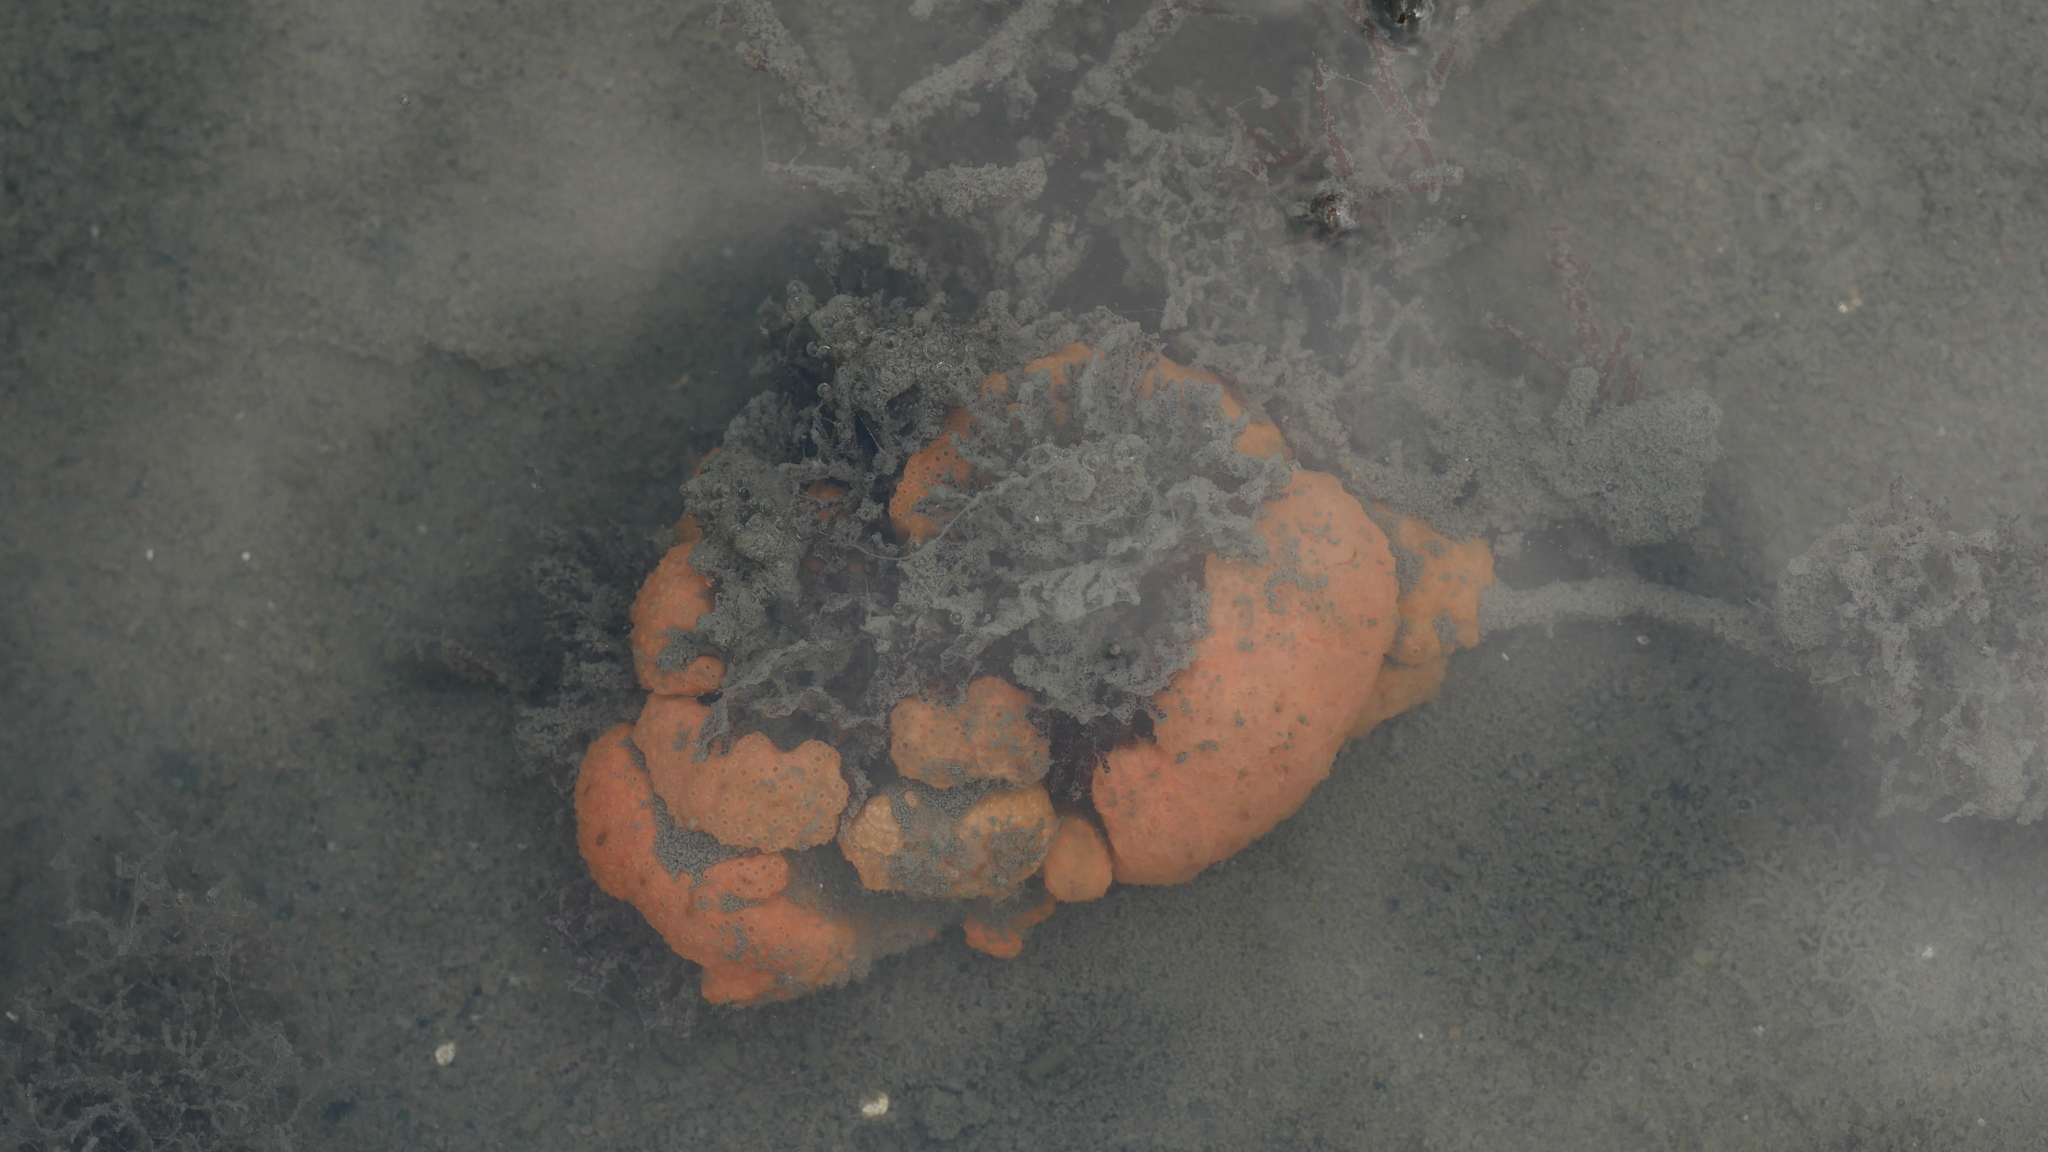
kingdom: Animalia
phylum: Chordata
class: Ascidiacea
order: Aplousobranchia
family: Polyclinidae
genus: Aplidium
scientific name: Aplidium stellatum
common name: Atlantic sea pork
